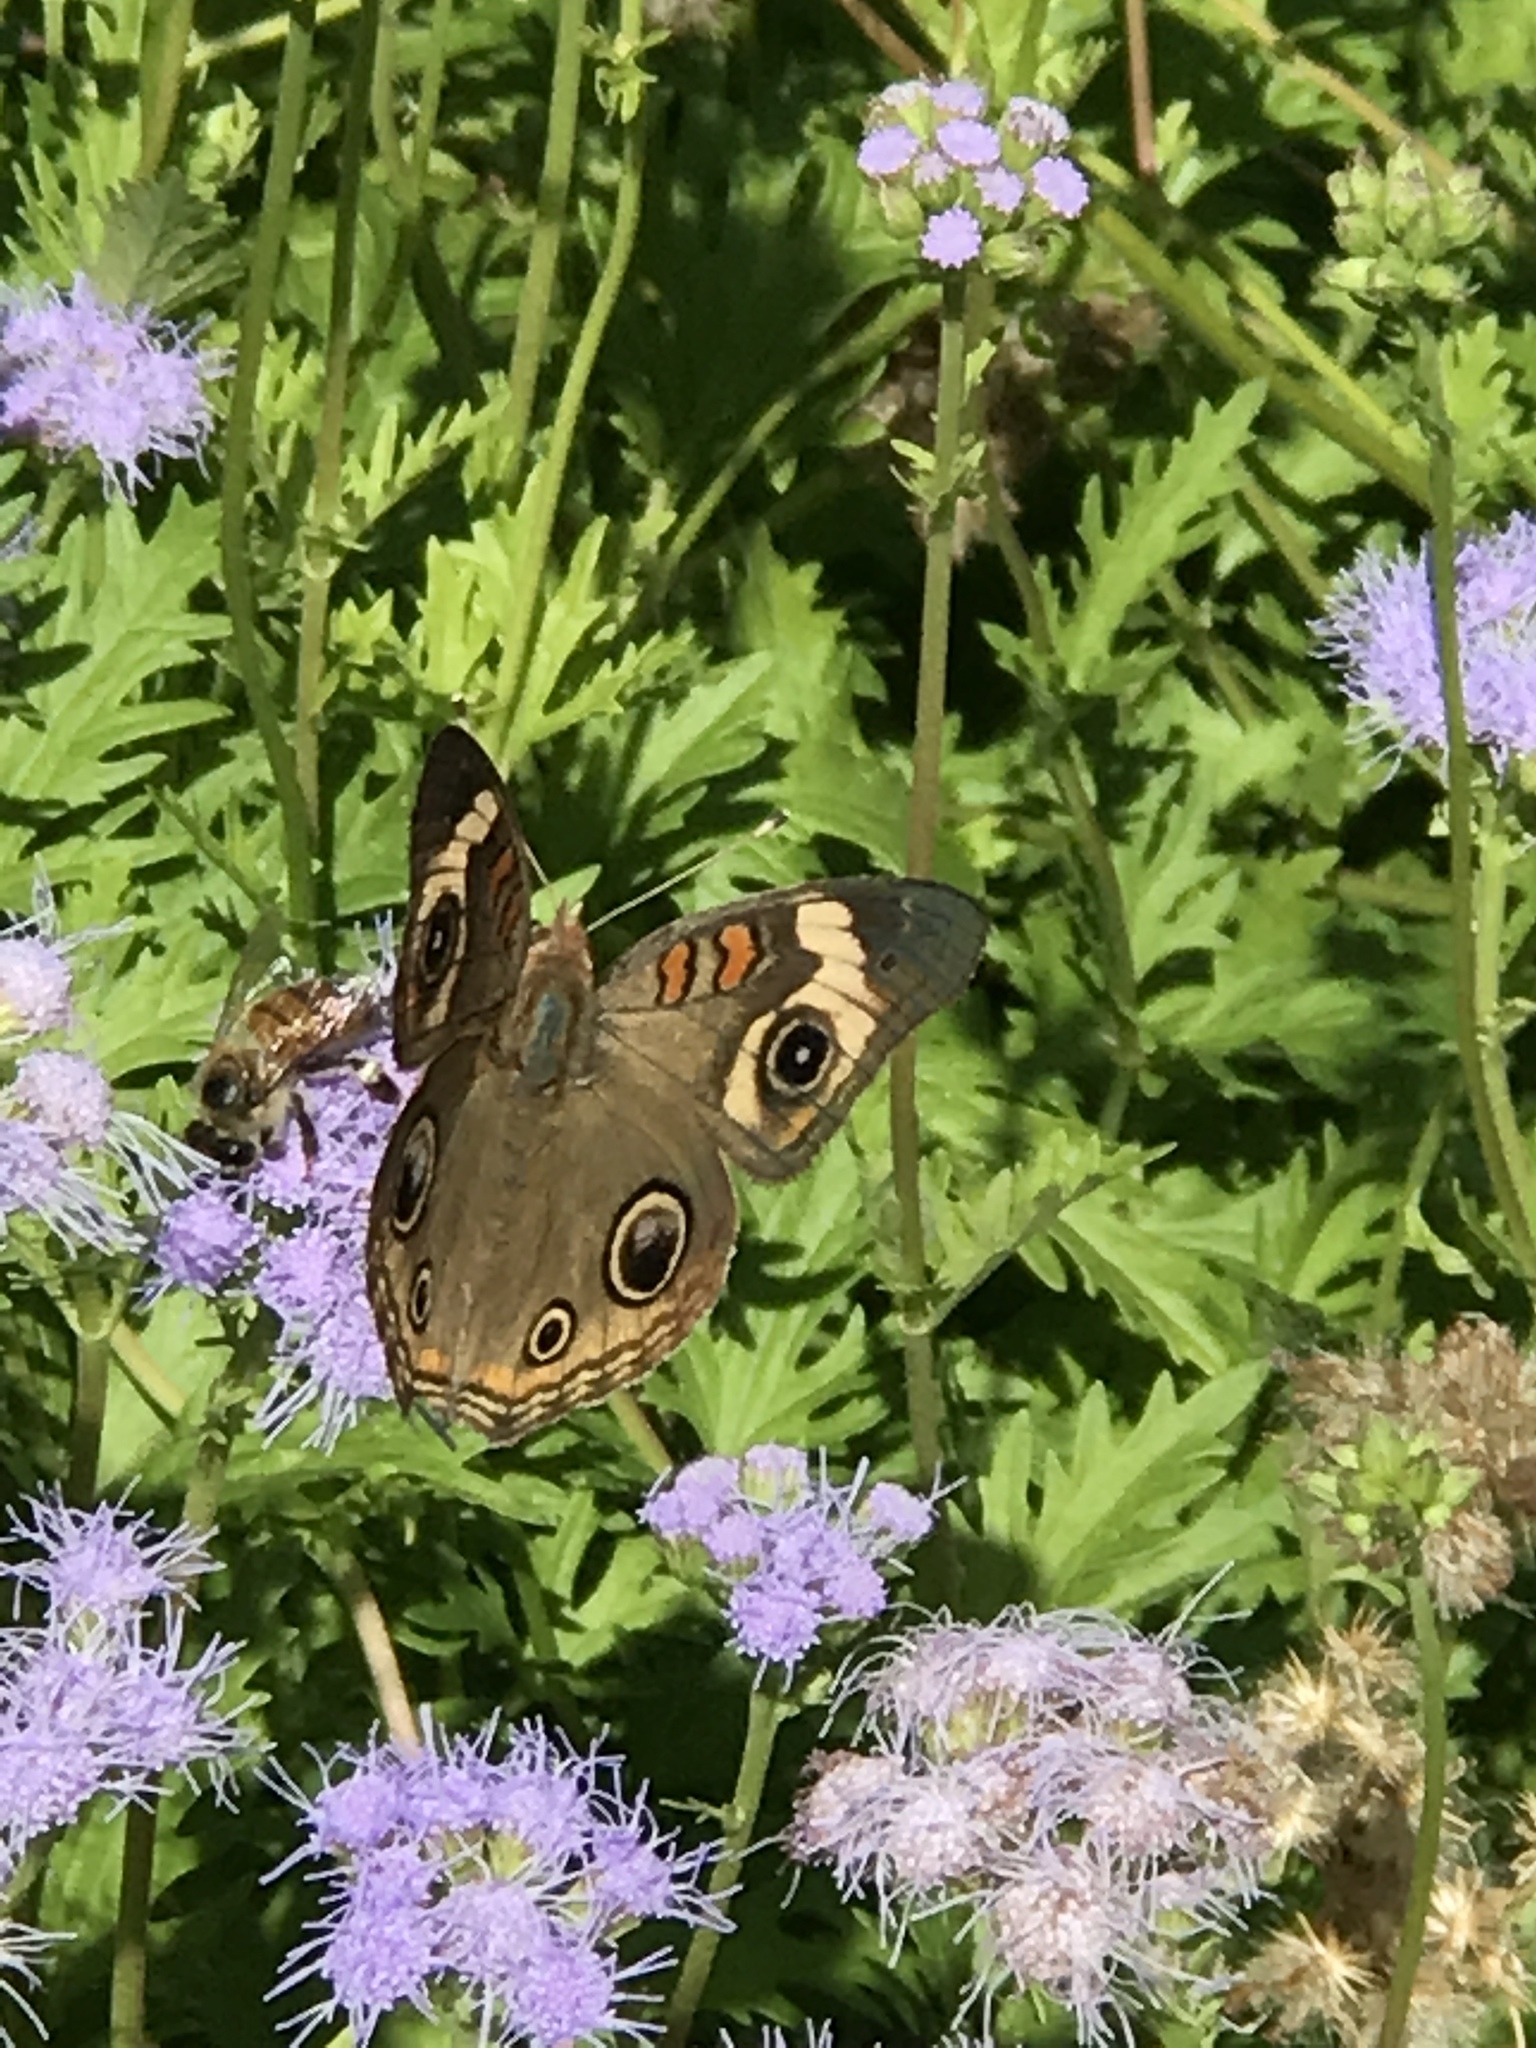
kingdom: Animalia
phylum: Arthropoda
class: Insecta
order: Lepidoptera
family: Nymphalidae
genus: Junonia
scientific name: Junonia coenia
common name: Common buckeye
